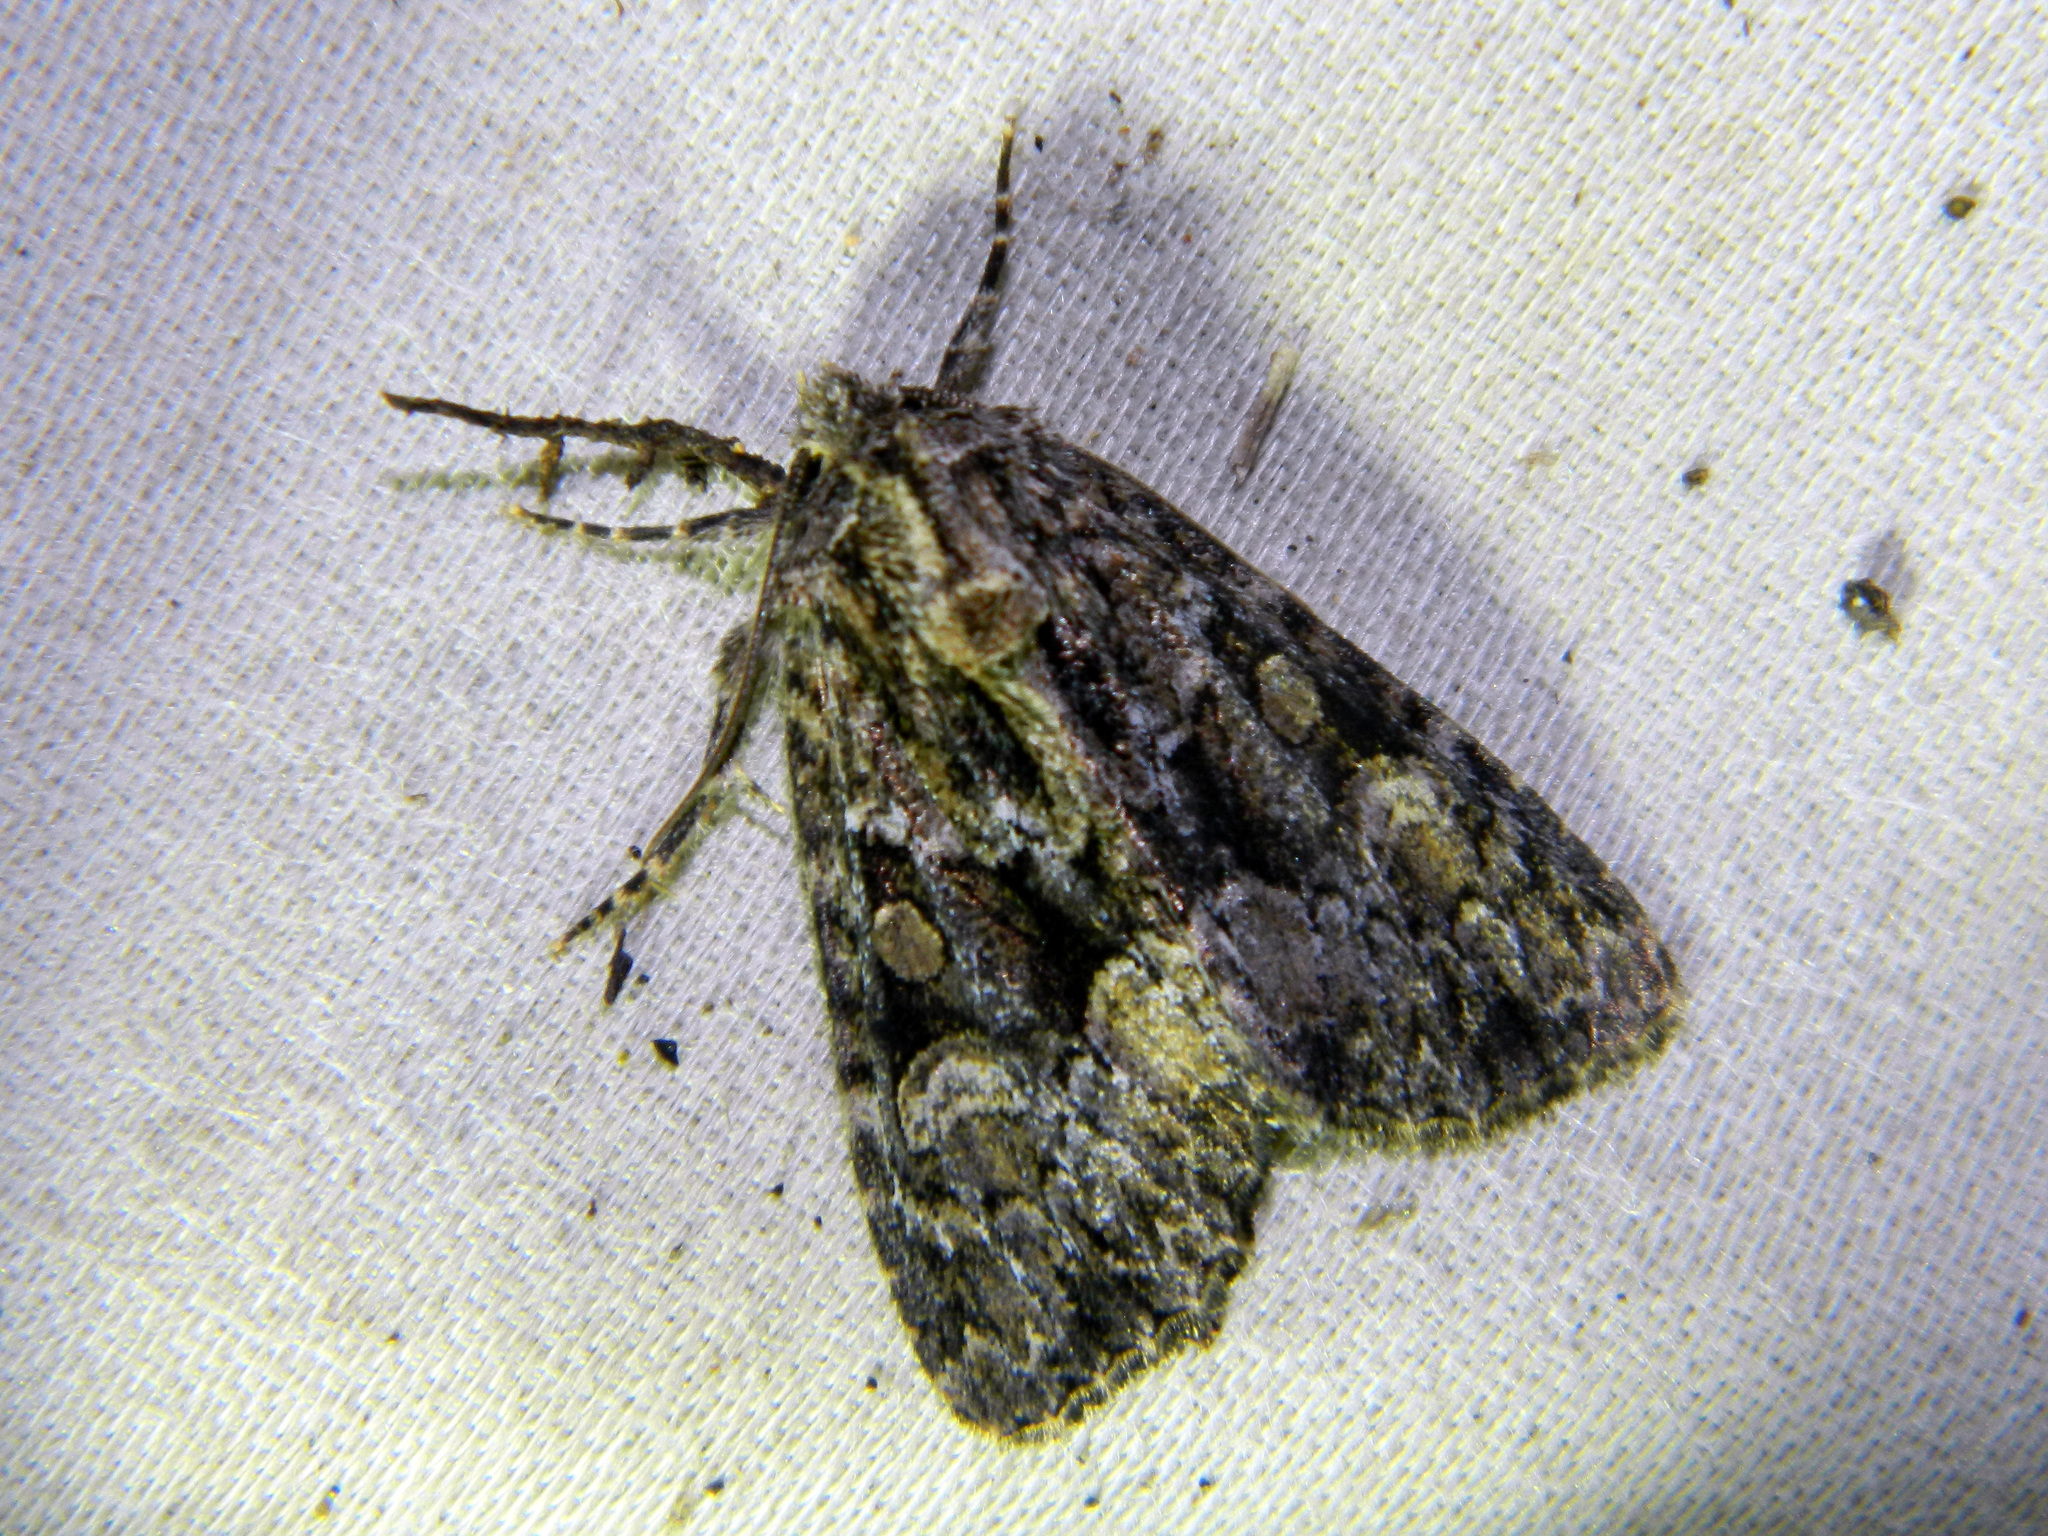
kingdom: Animalia
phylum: Arthropoda
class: Insecta
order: Lepidoptera
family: Noctuidae
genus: Platypolia
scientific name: Platypolia mactata
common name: Adorable brocade moth
